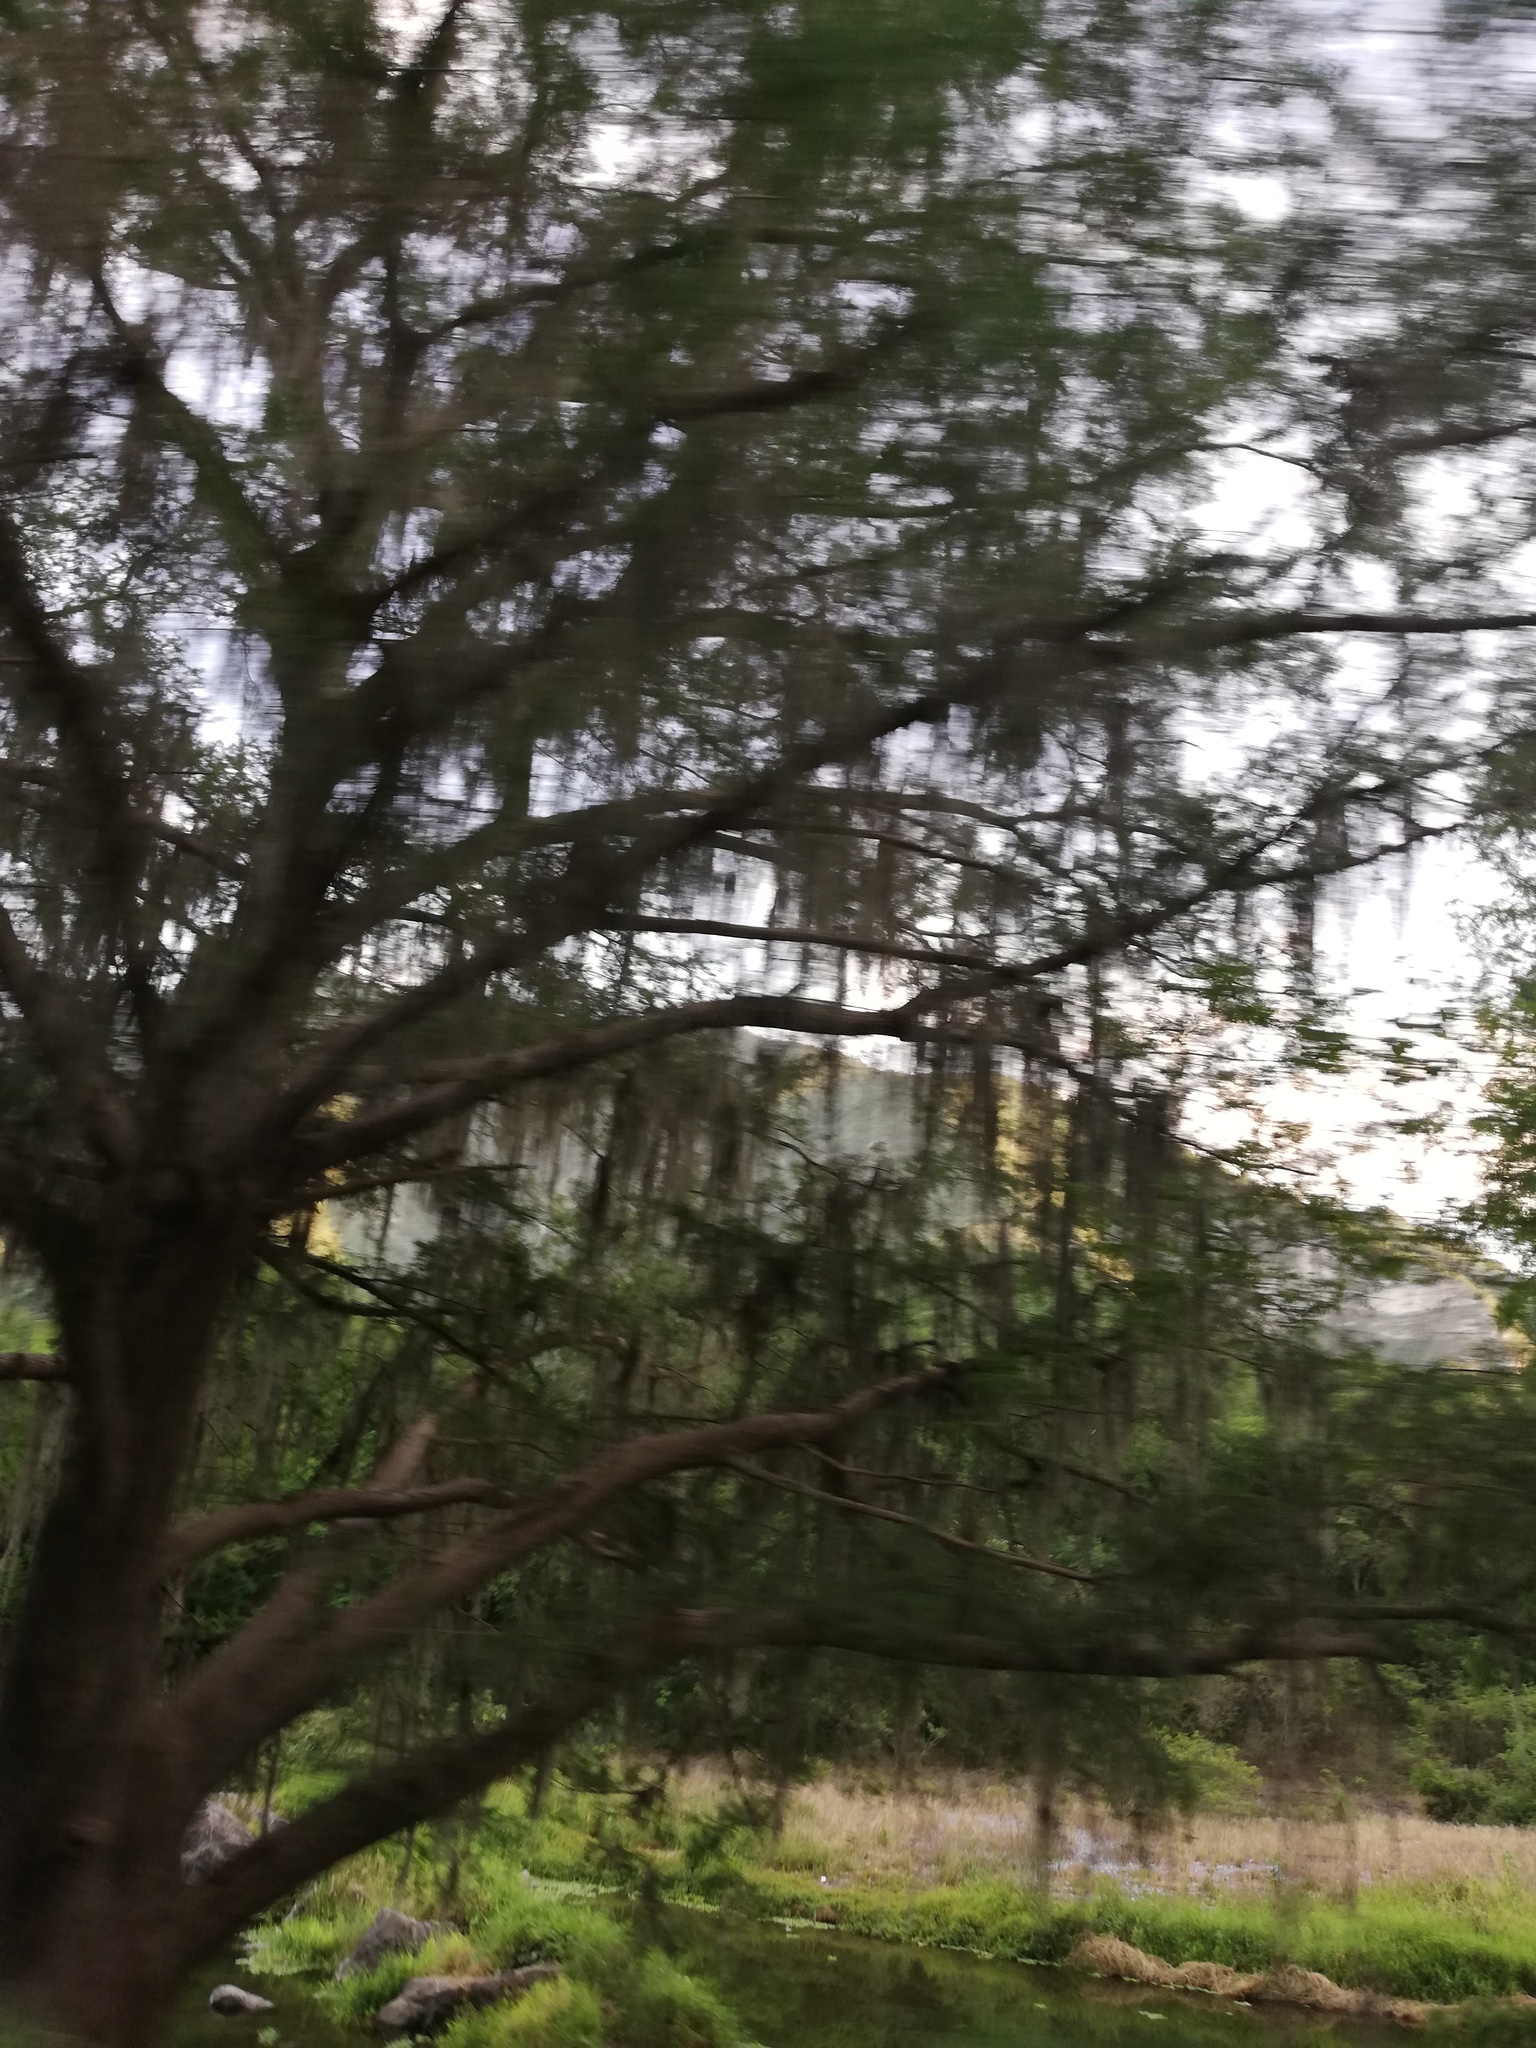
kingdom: Plantae
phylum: Tracheophyta
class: Liliopsida
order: Poales
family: Bromeliaceae
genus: Tillandsia
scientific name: Tillandsia usneoides
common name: Spanish moss
